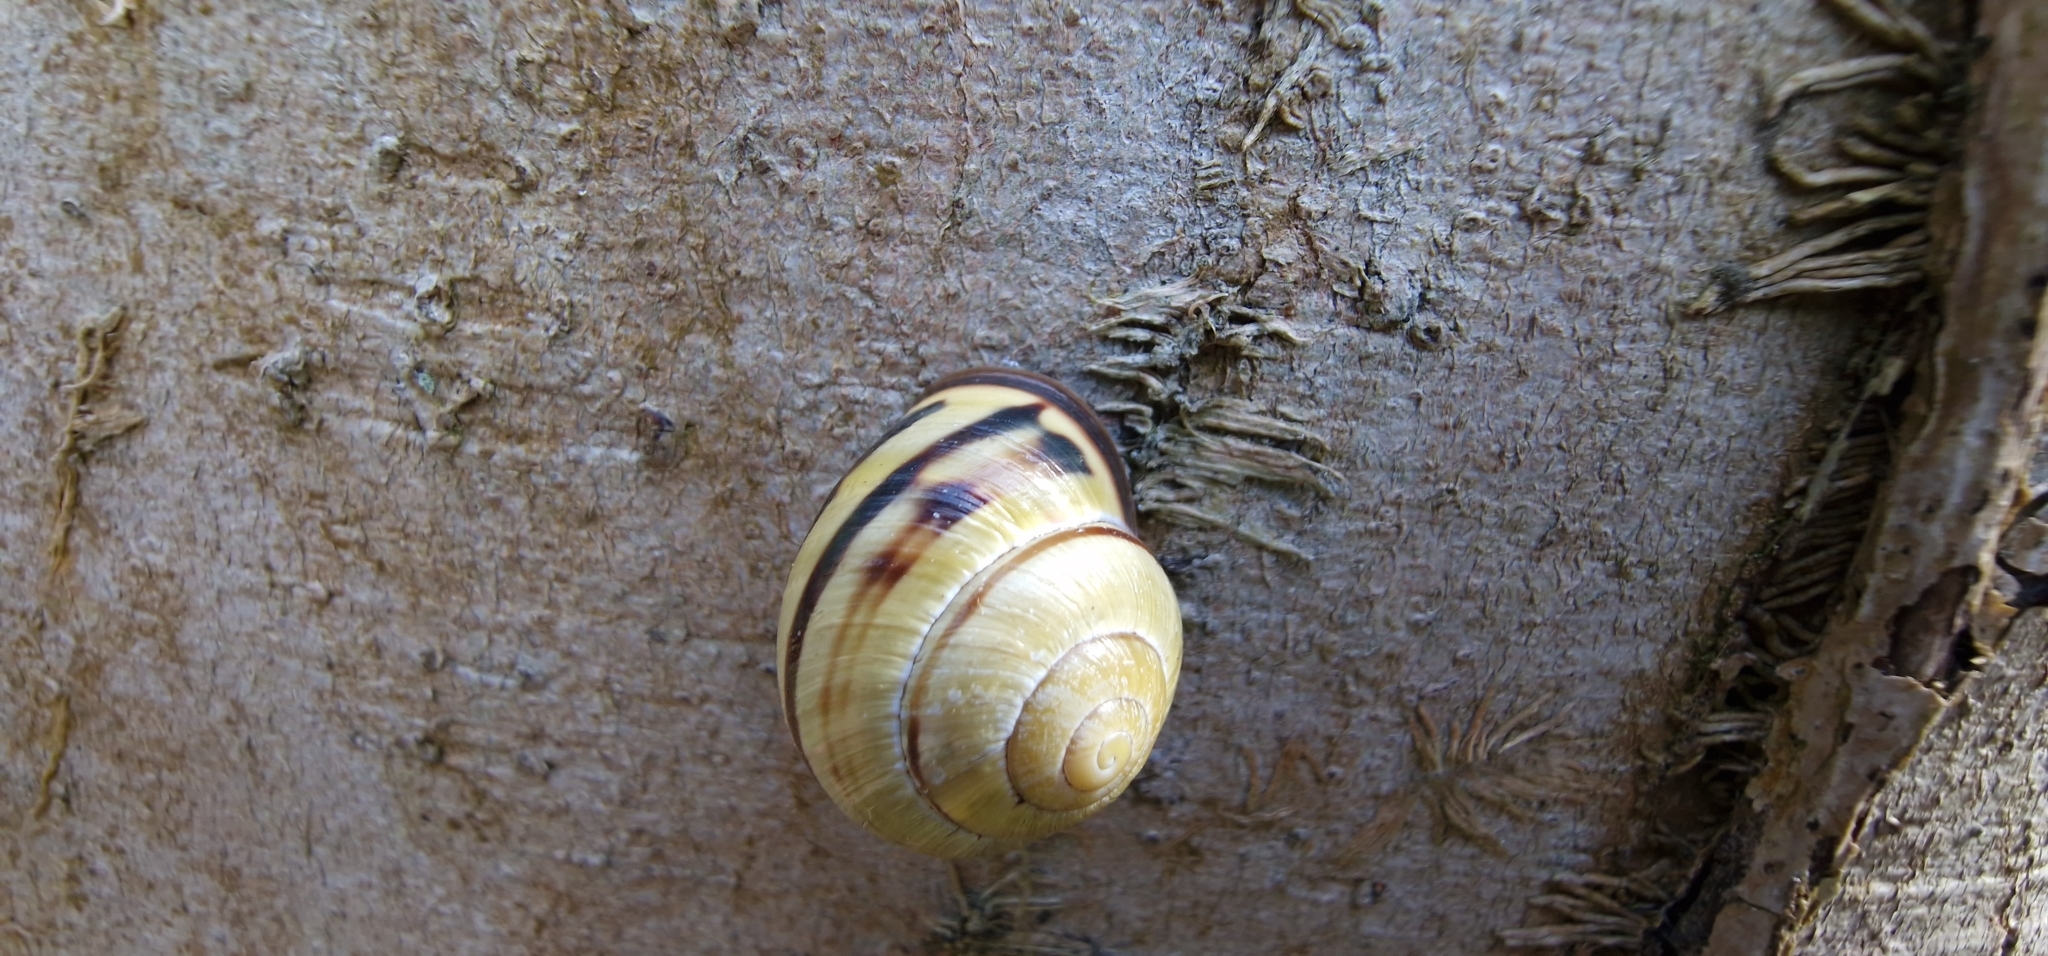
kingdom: Animalia
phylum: Mollusca
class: Gastropoda
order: Stylommatophora
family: Helicidae
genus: Cepaea
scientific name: Cepaea nemoralis
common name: Grovesnail
